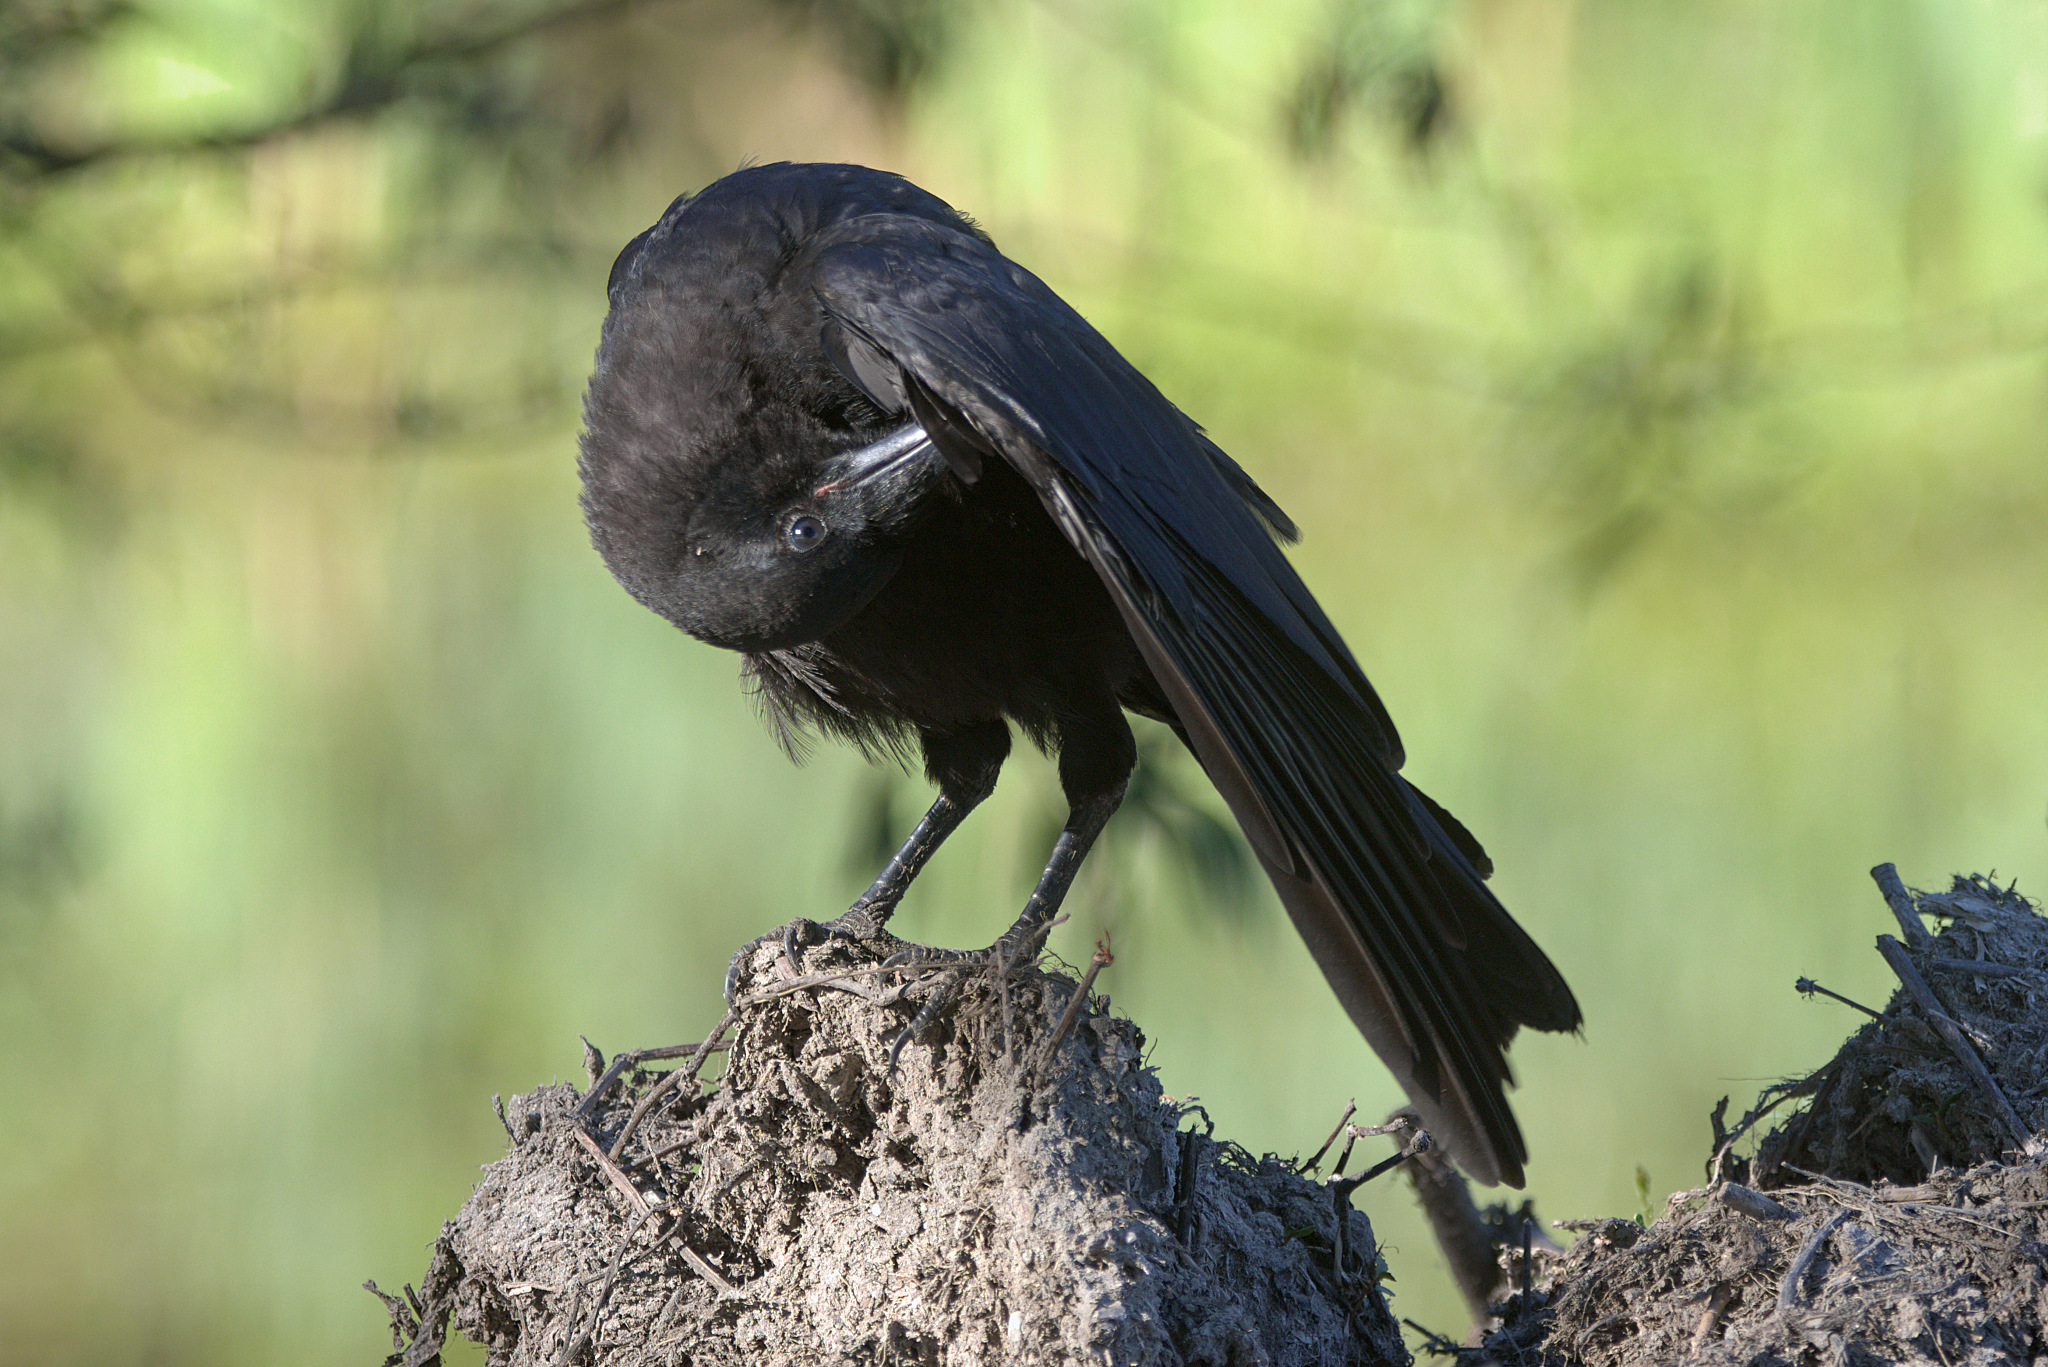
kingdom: Animalia
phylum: Chordata
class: Aves
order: Passeriformes
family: Corvidae
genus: Corvus
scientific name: Corvus brachyrhynchos
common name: American crow
